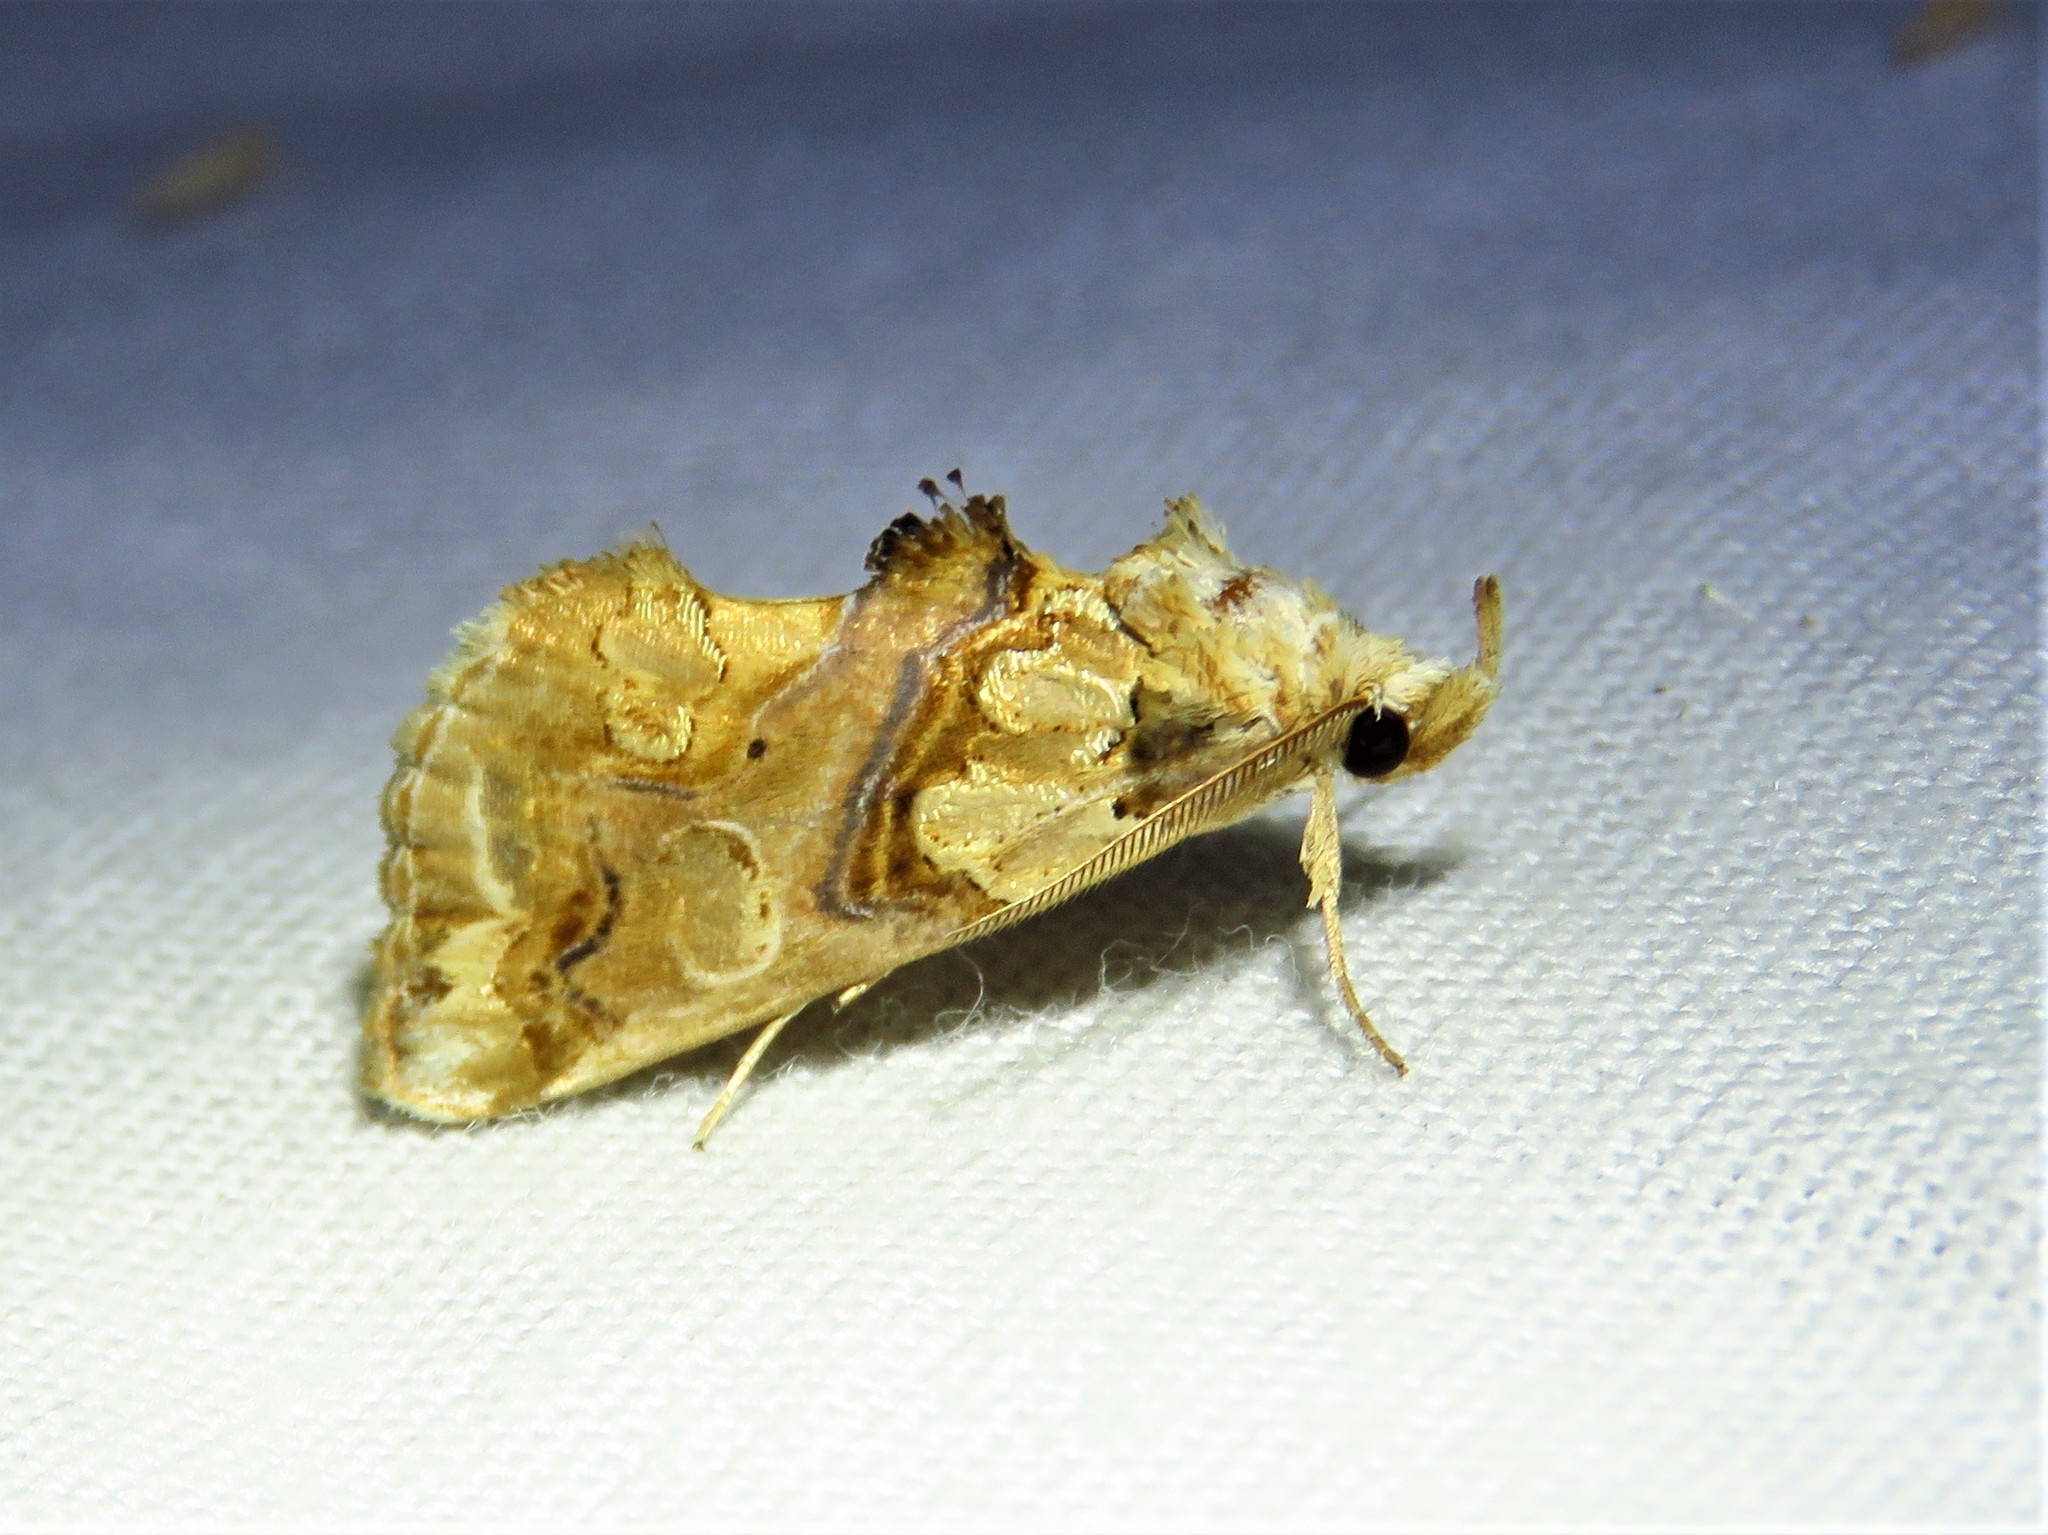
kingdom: Animalia
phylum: Arthropoda
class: Insecta
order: Lepidoptera
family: Erebidae
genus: Plusiodonta
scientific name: Plusiodonta compressipalpis
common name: Moonseed moth
